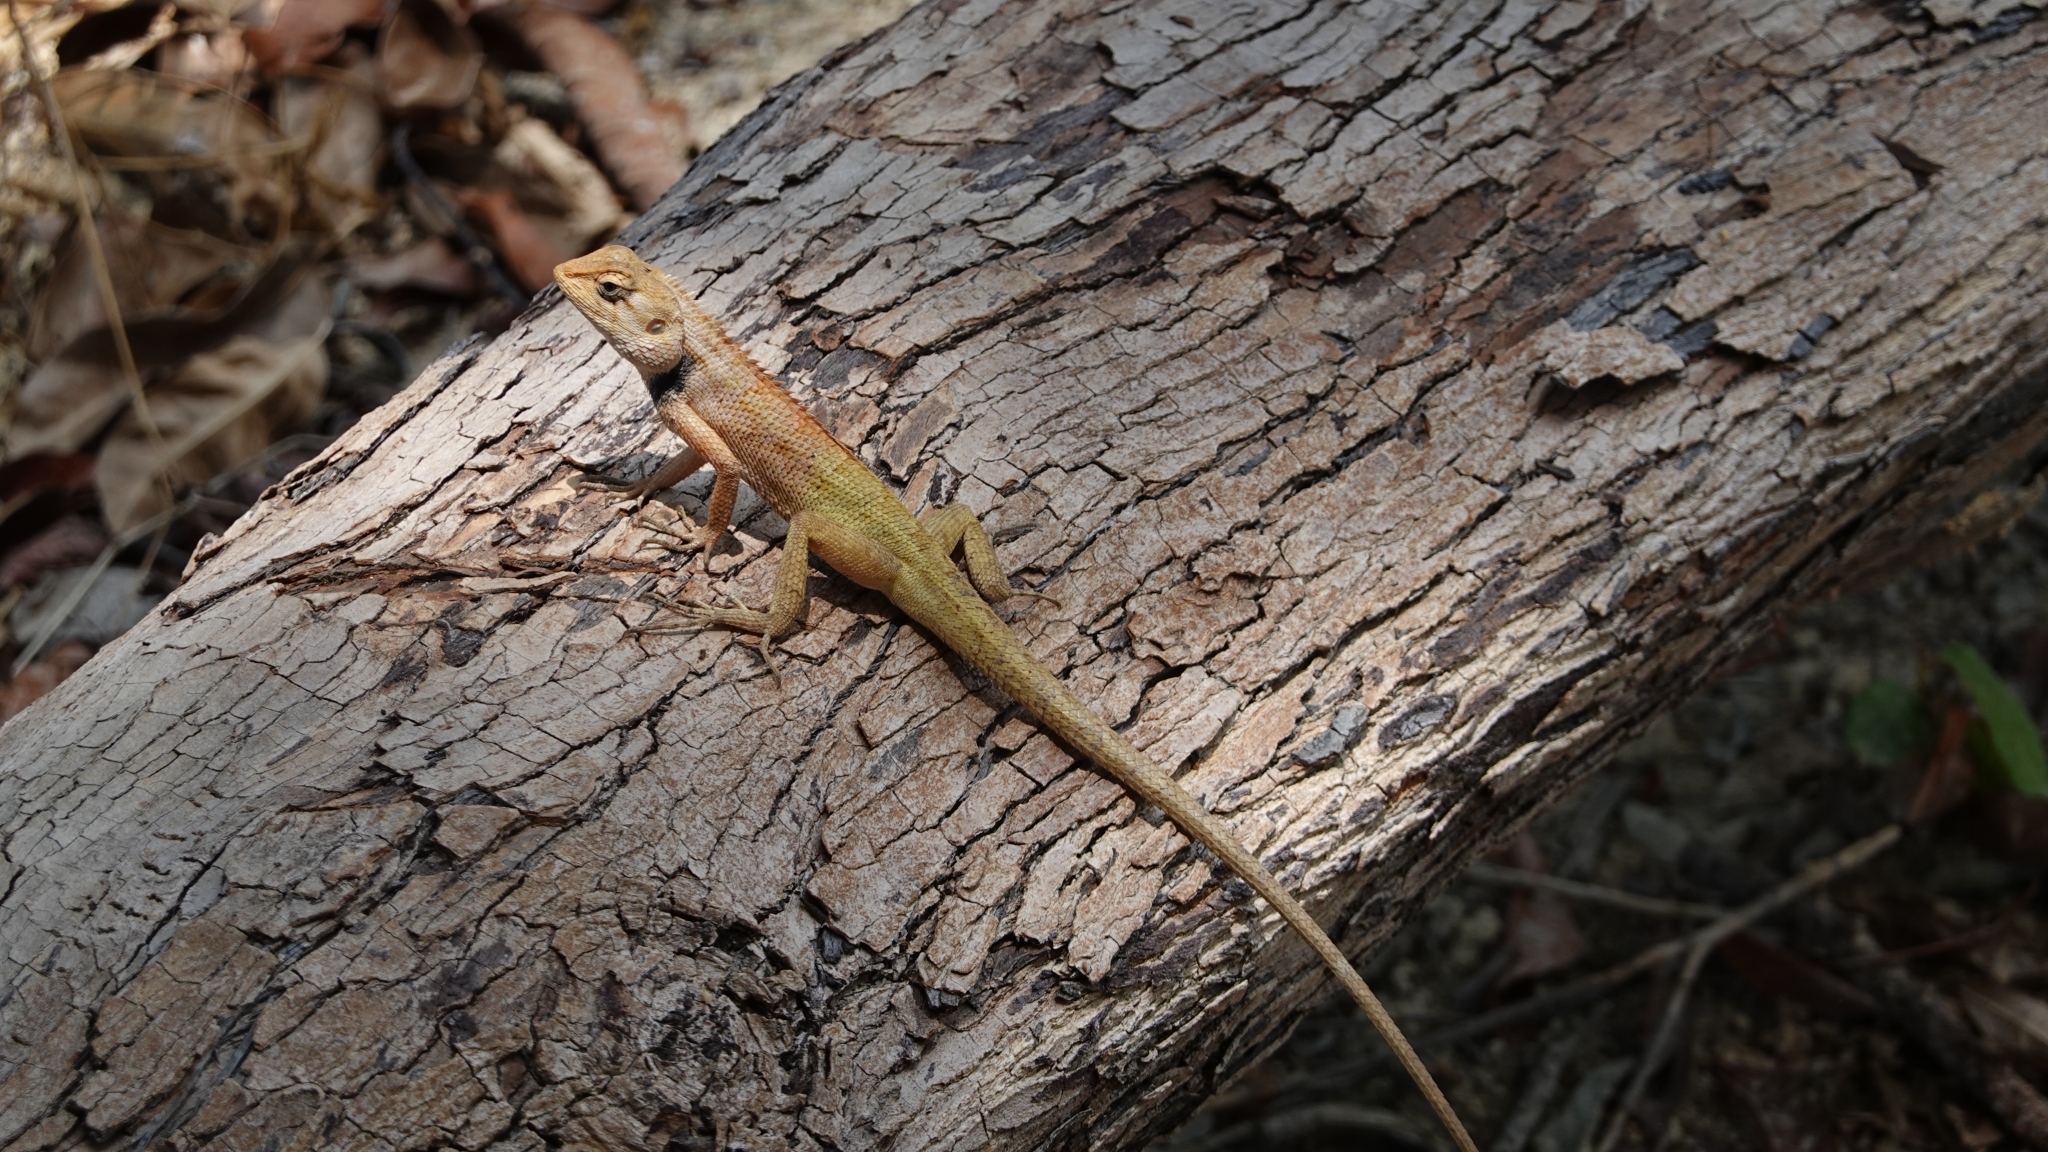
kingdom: Animalia
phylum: Chordata
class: Squamata
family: Agamidae
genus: Calotes
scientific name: Calotes versicolor
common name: Oriental garden lizard
